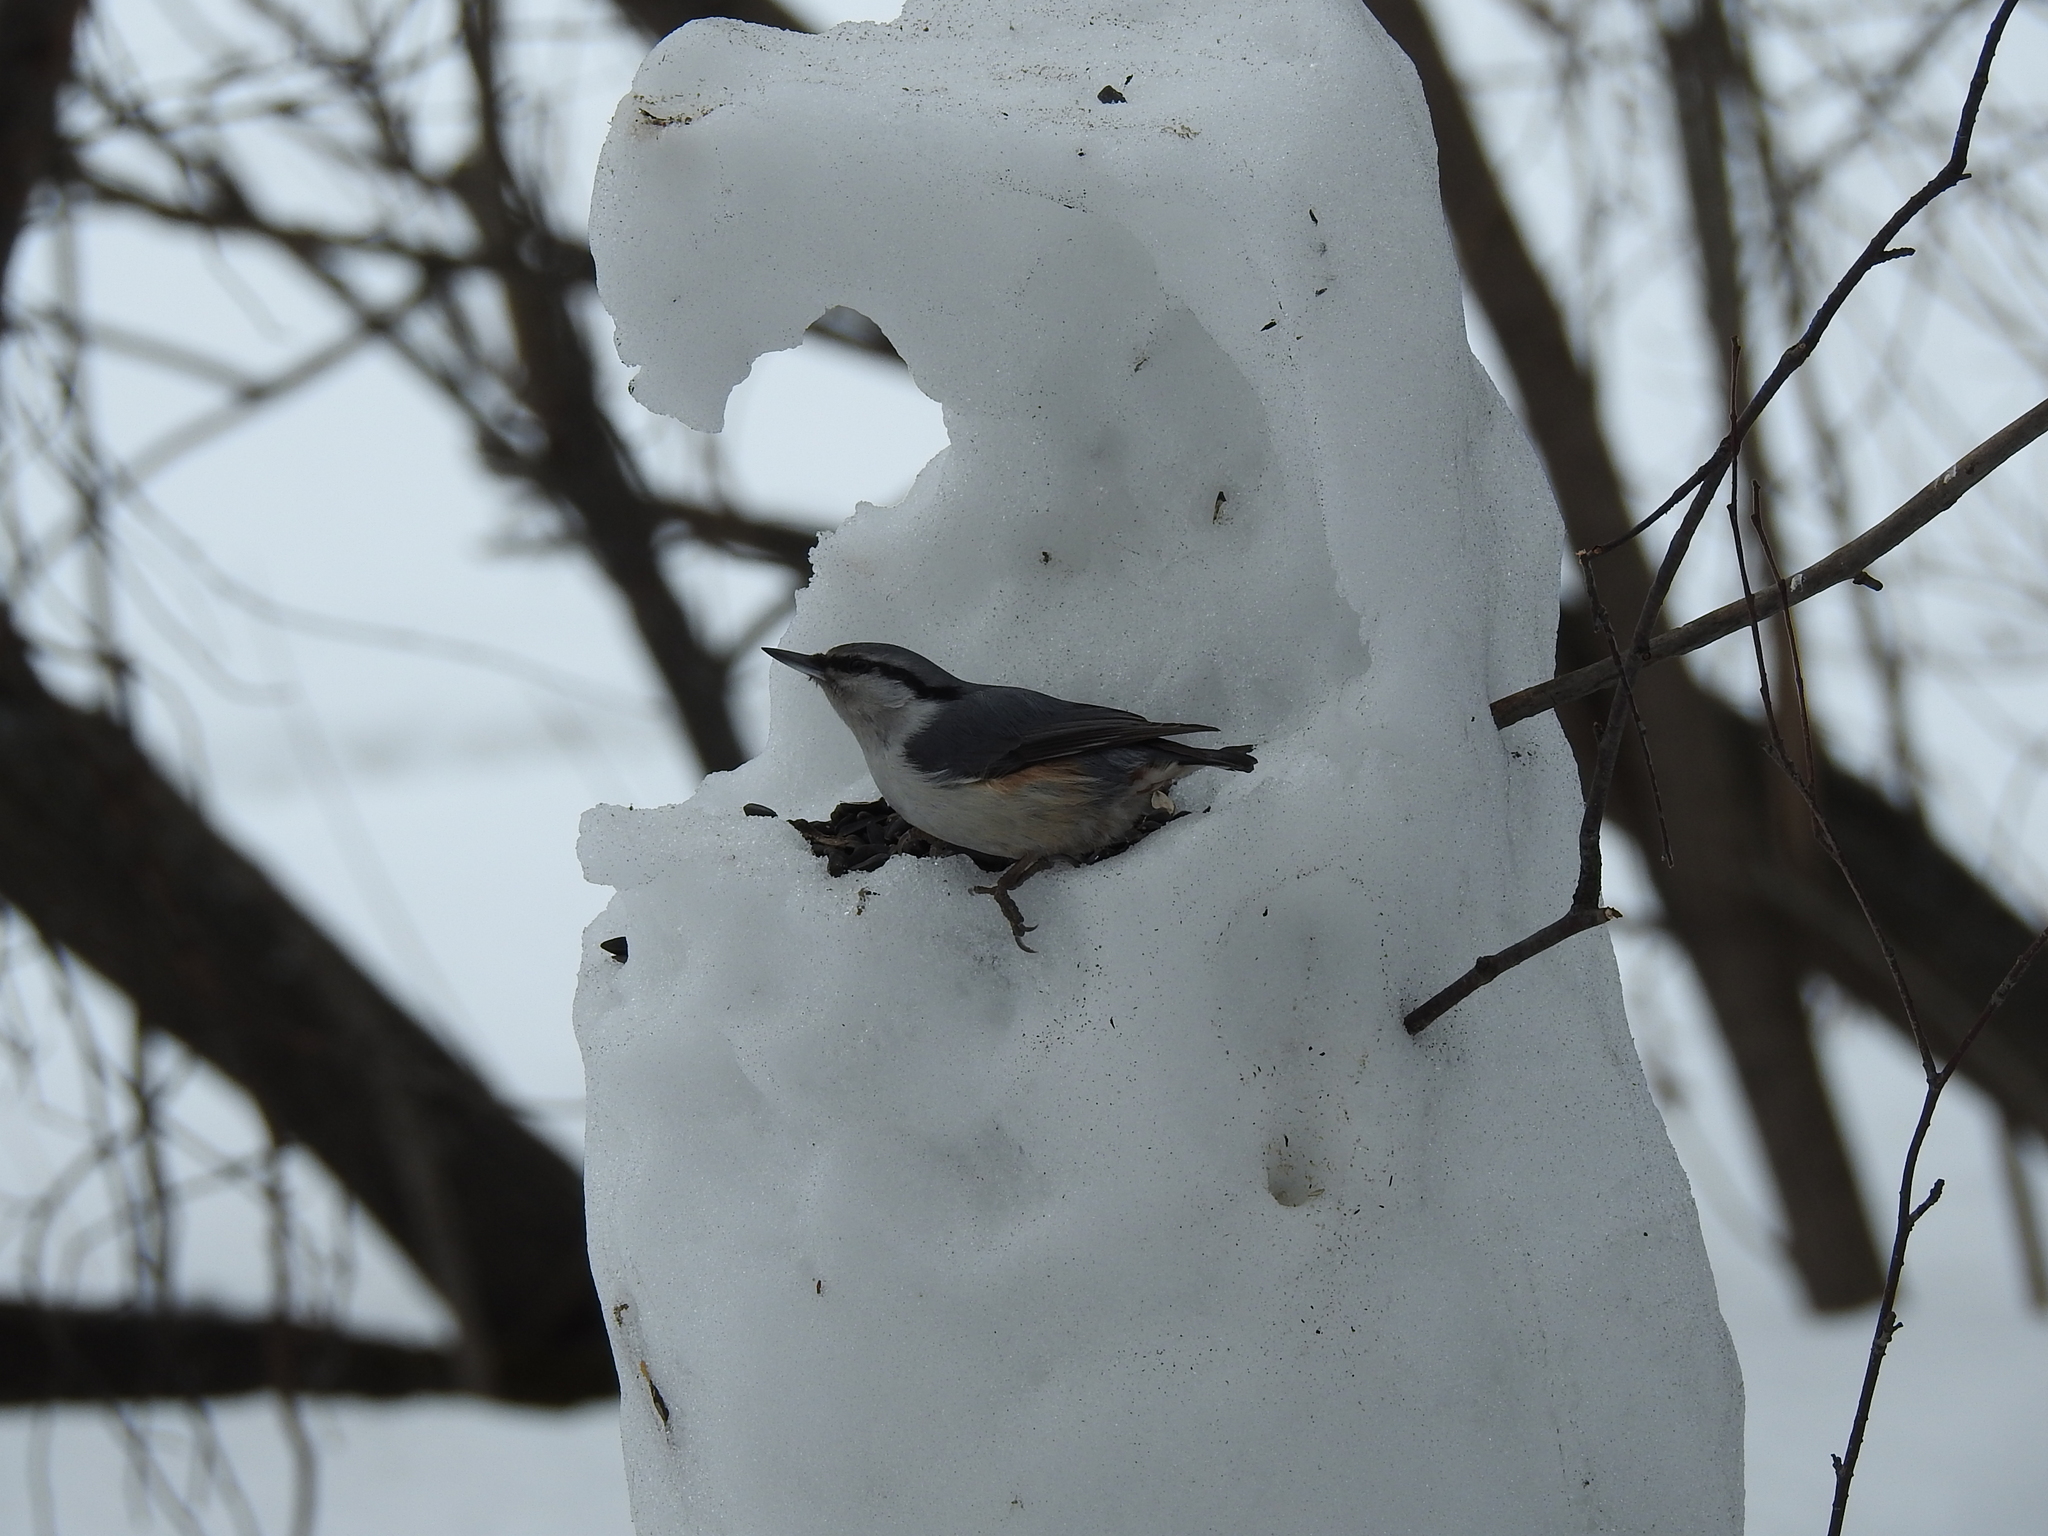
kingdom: Animalia
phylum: Chordata
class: Aves
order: Passeriformes
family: Sittidae
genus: Sitta
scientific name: Sitta europaea
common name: Eurasian nuthatch
